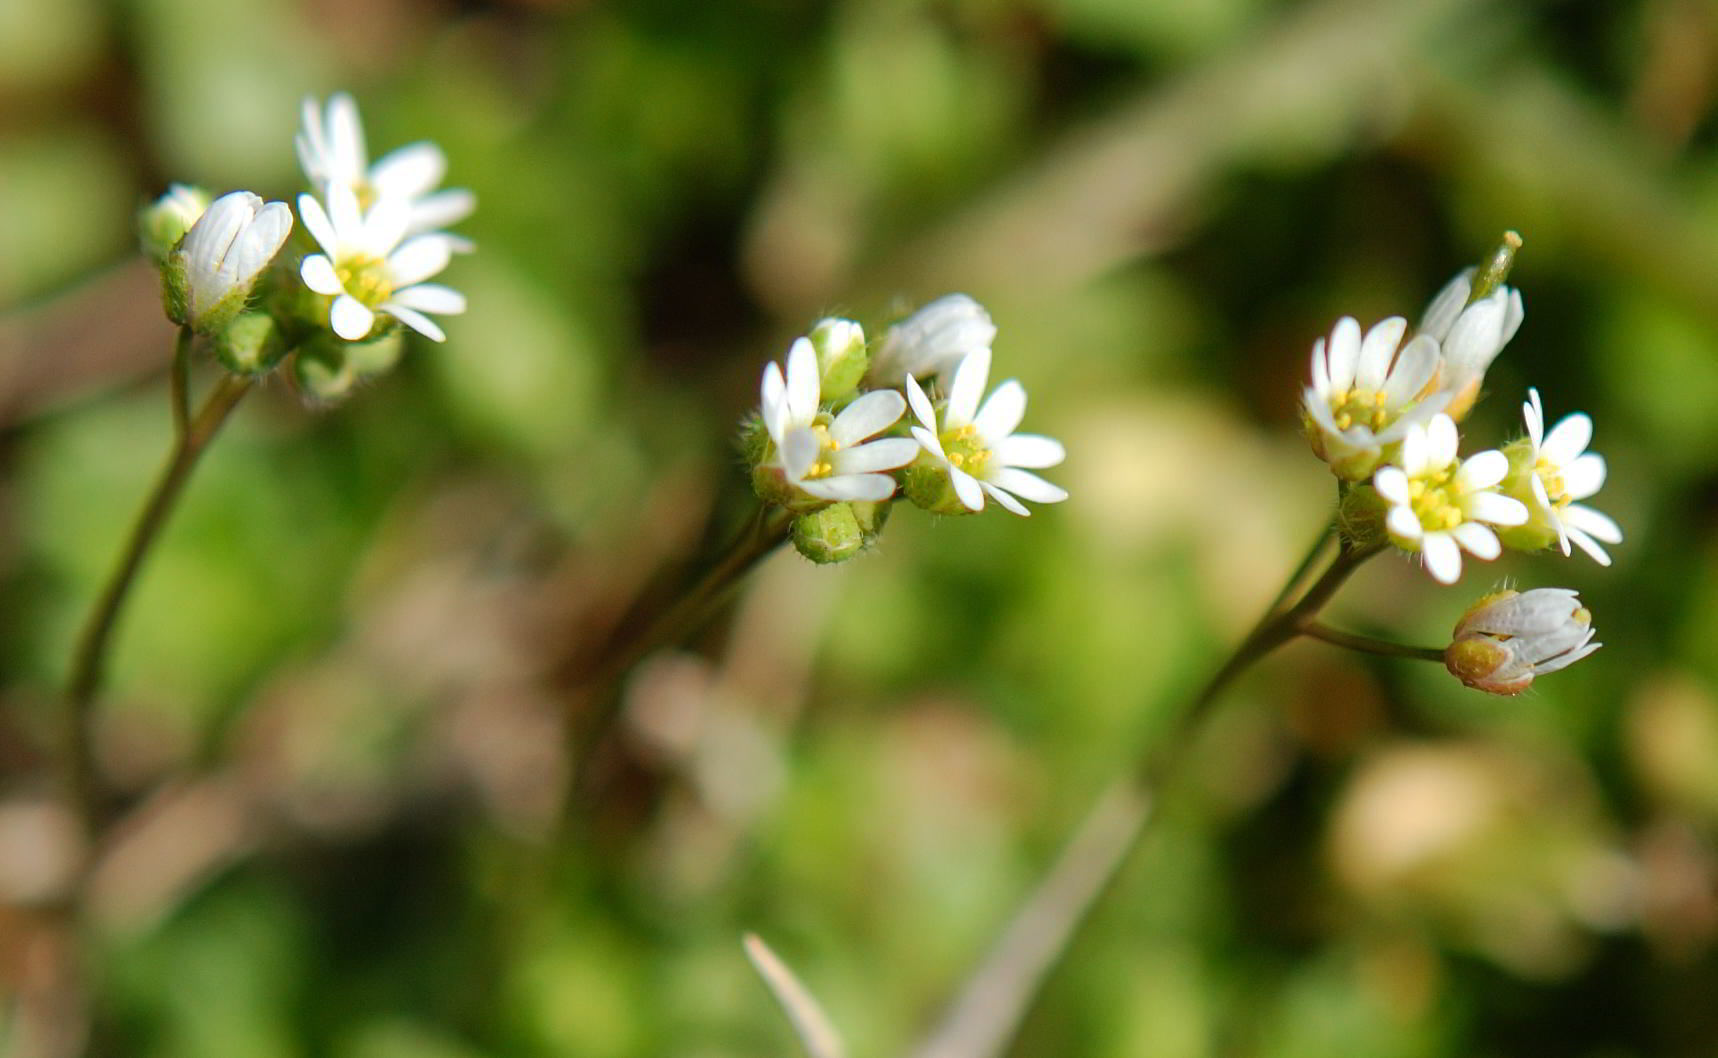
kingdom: Plantae
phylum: Tracheophyta
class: Magnoliopsida
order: Brassicales
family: Brassicaceae
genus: Draba
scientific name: Draba verna
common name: Spring draba
